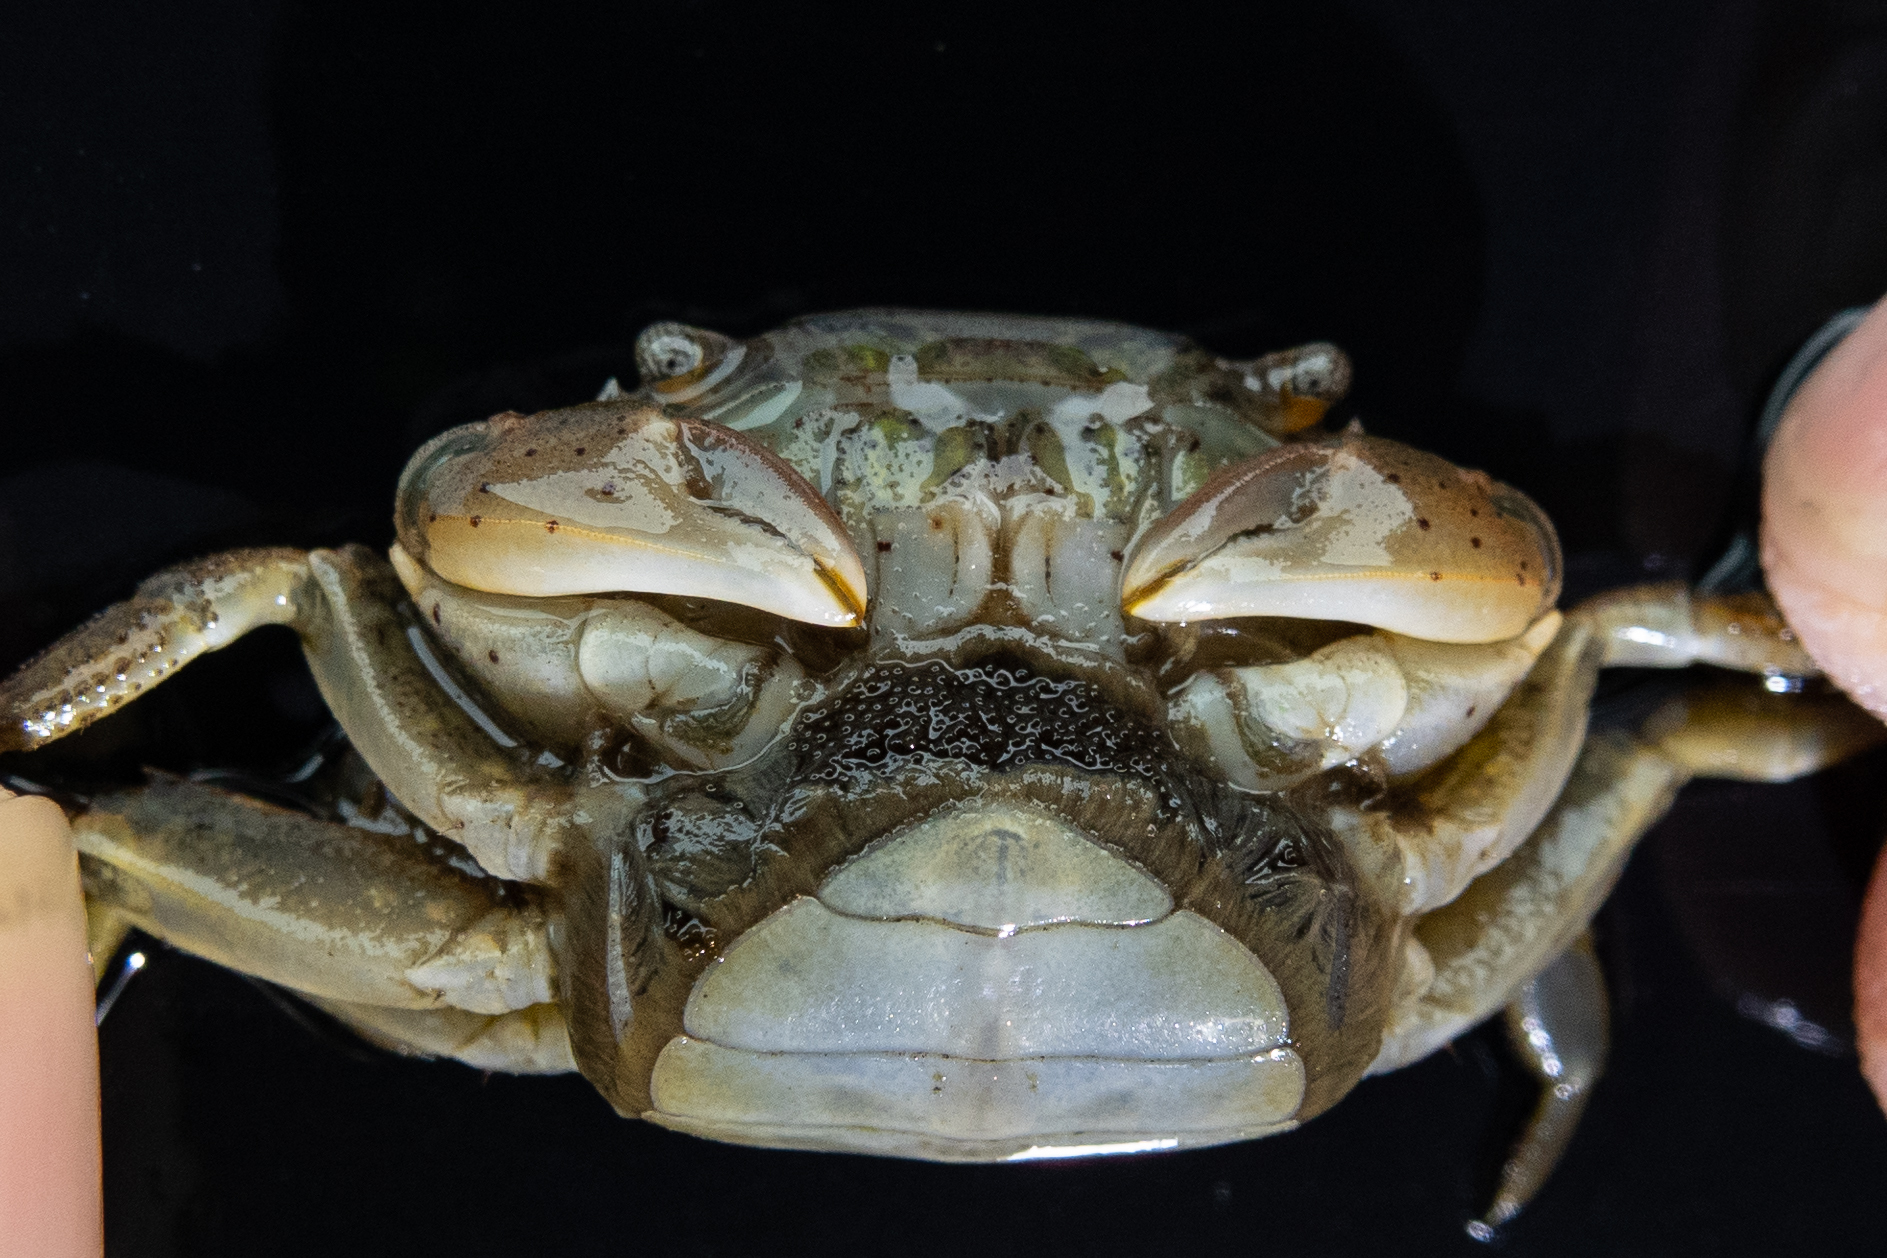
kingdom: Animalia
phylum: Arthropoda
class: Malacostraca
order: Decapoda
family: Varunidae
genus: Hemigrapsus
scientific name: Hemigrapsus takanoi
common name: Asian brush crab
